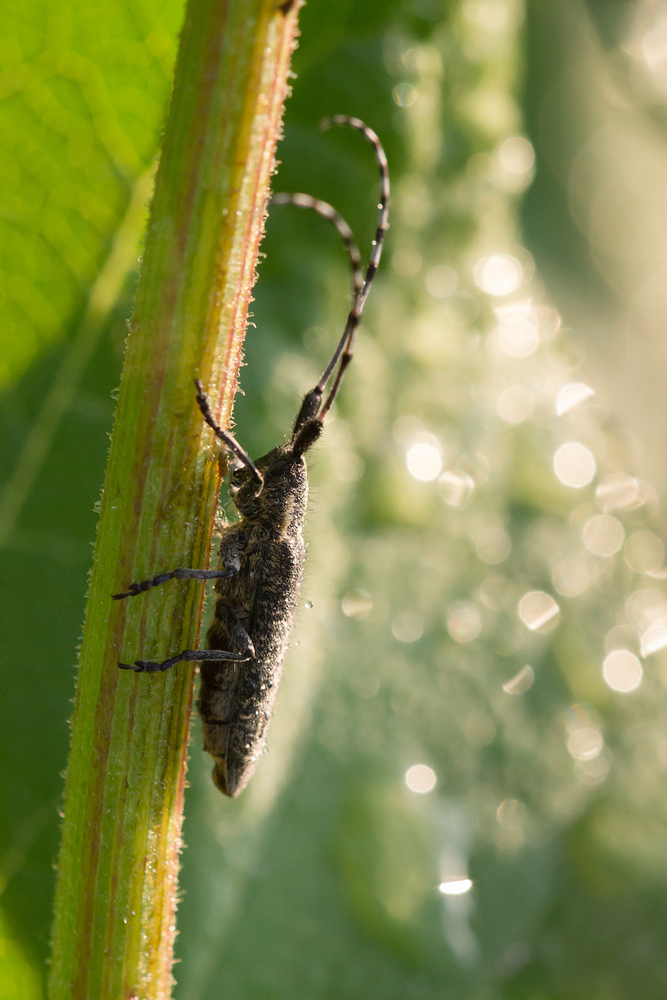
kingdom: Animalia
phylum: Arthropoda
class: Insecta
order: Coleoptera
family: Cerambycidae
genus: Agapanthia
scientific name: Agapanthia villosoviridescens
